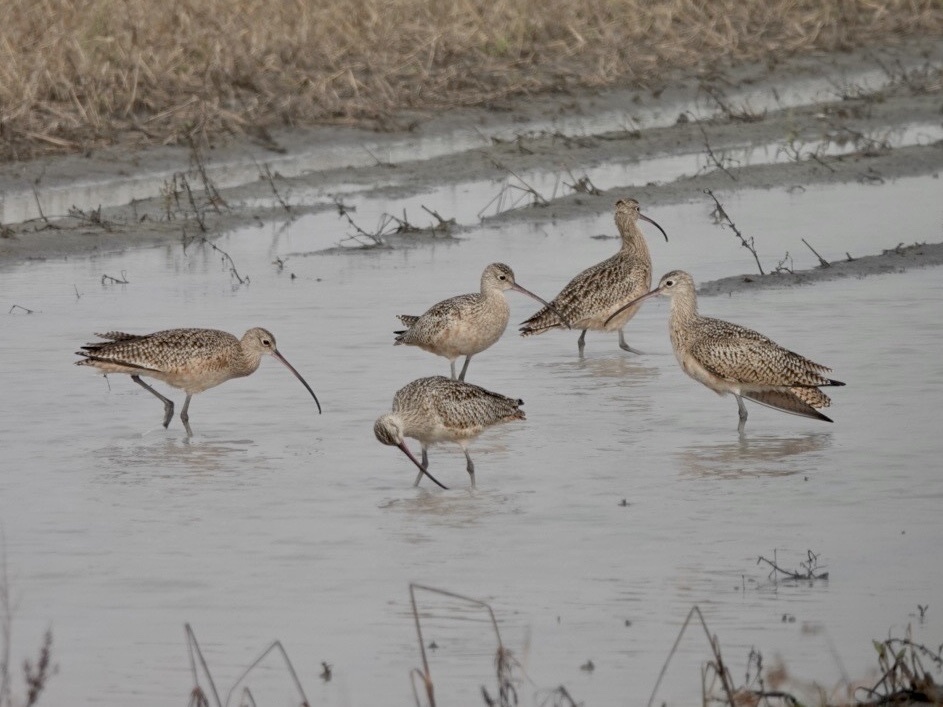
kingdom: Animalia
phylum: Chordata
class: Aves
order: Charadriiformes
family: Scolopacidae
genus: Numenius
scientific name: Numenius americanus
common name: Long-billed curlew
